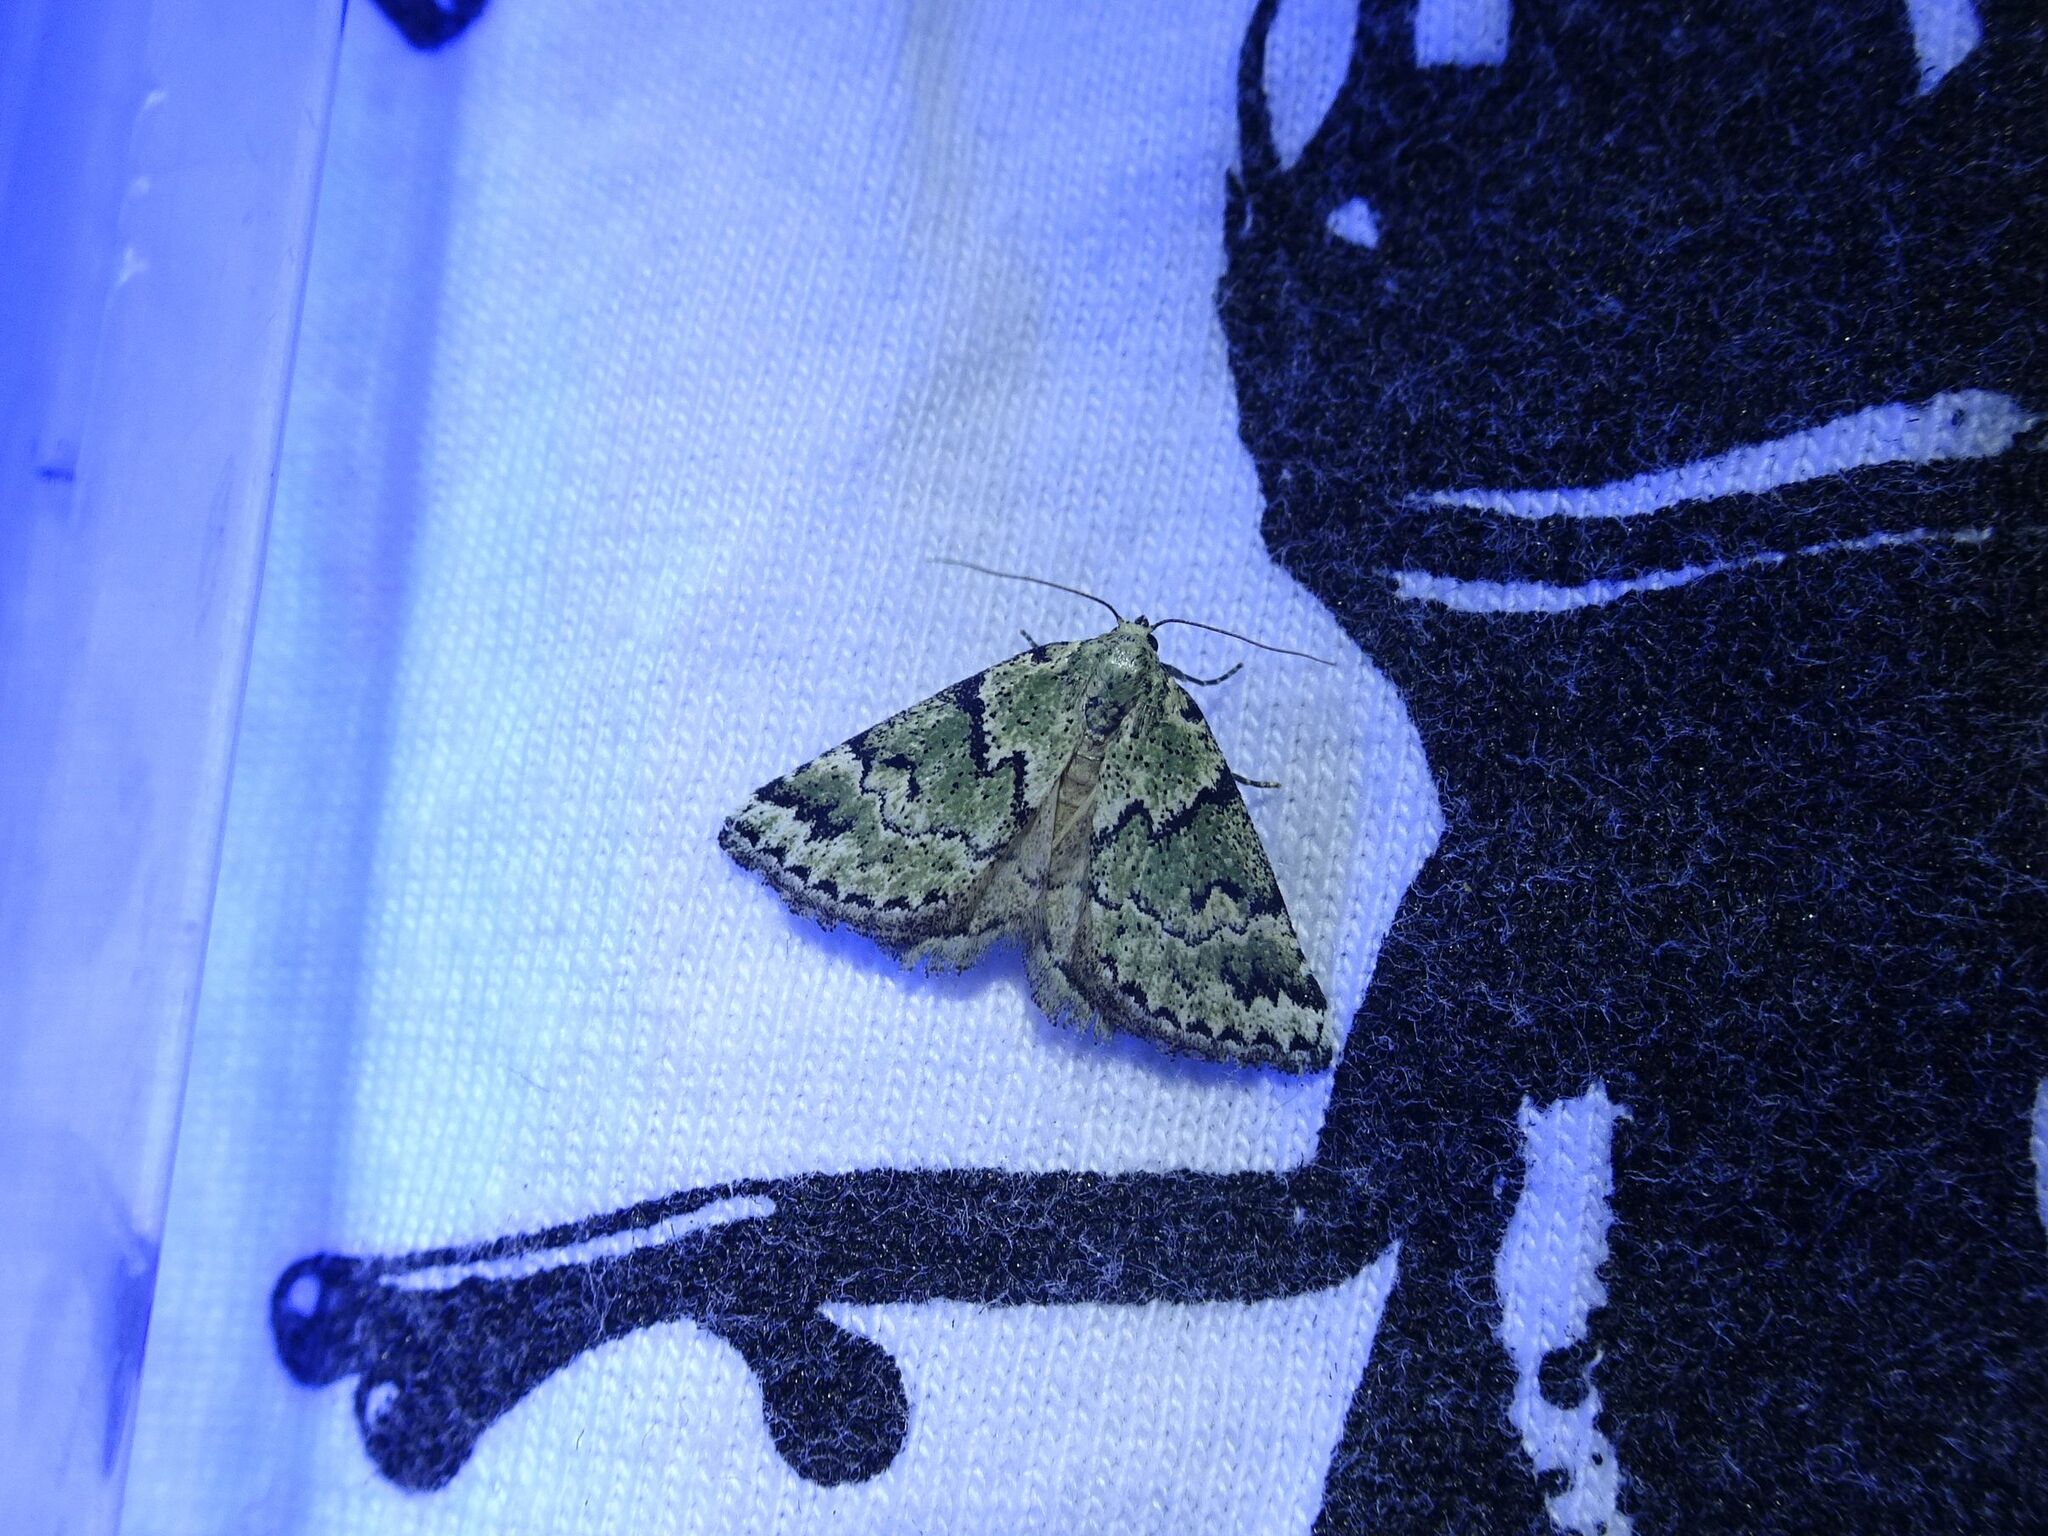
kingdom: Animalia
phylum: Arthropoda
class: Insecta
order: Lepidoptera
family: Noctuidae
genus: Cerynea
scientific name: Cerynea virescens
